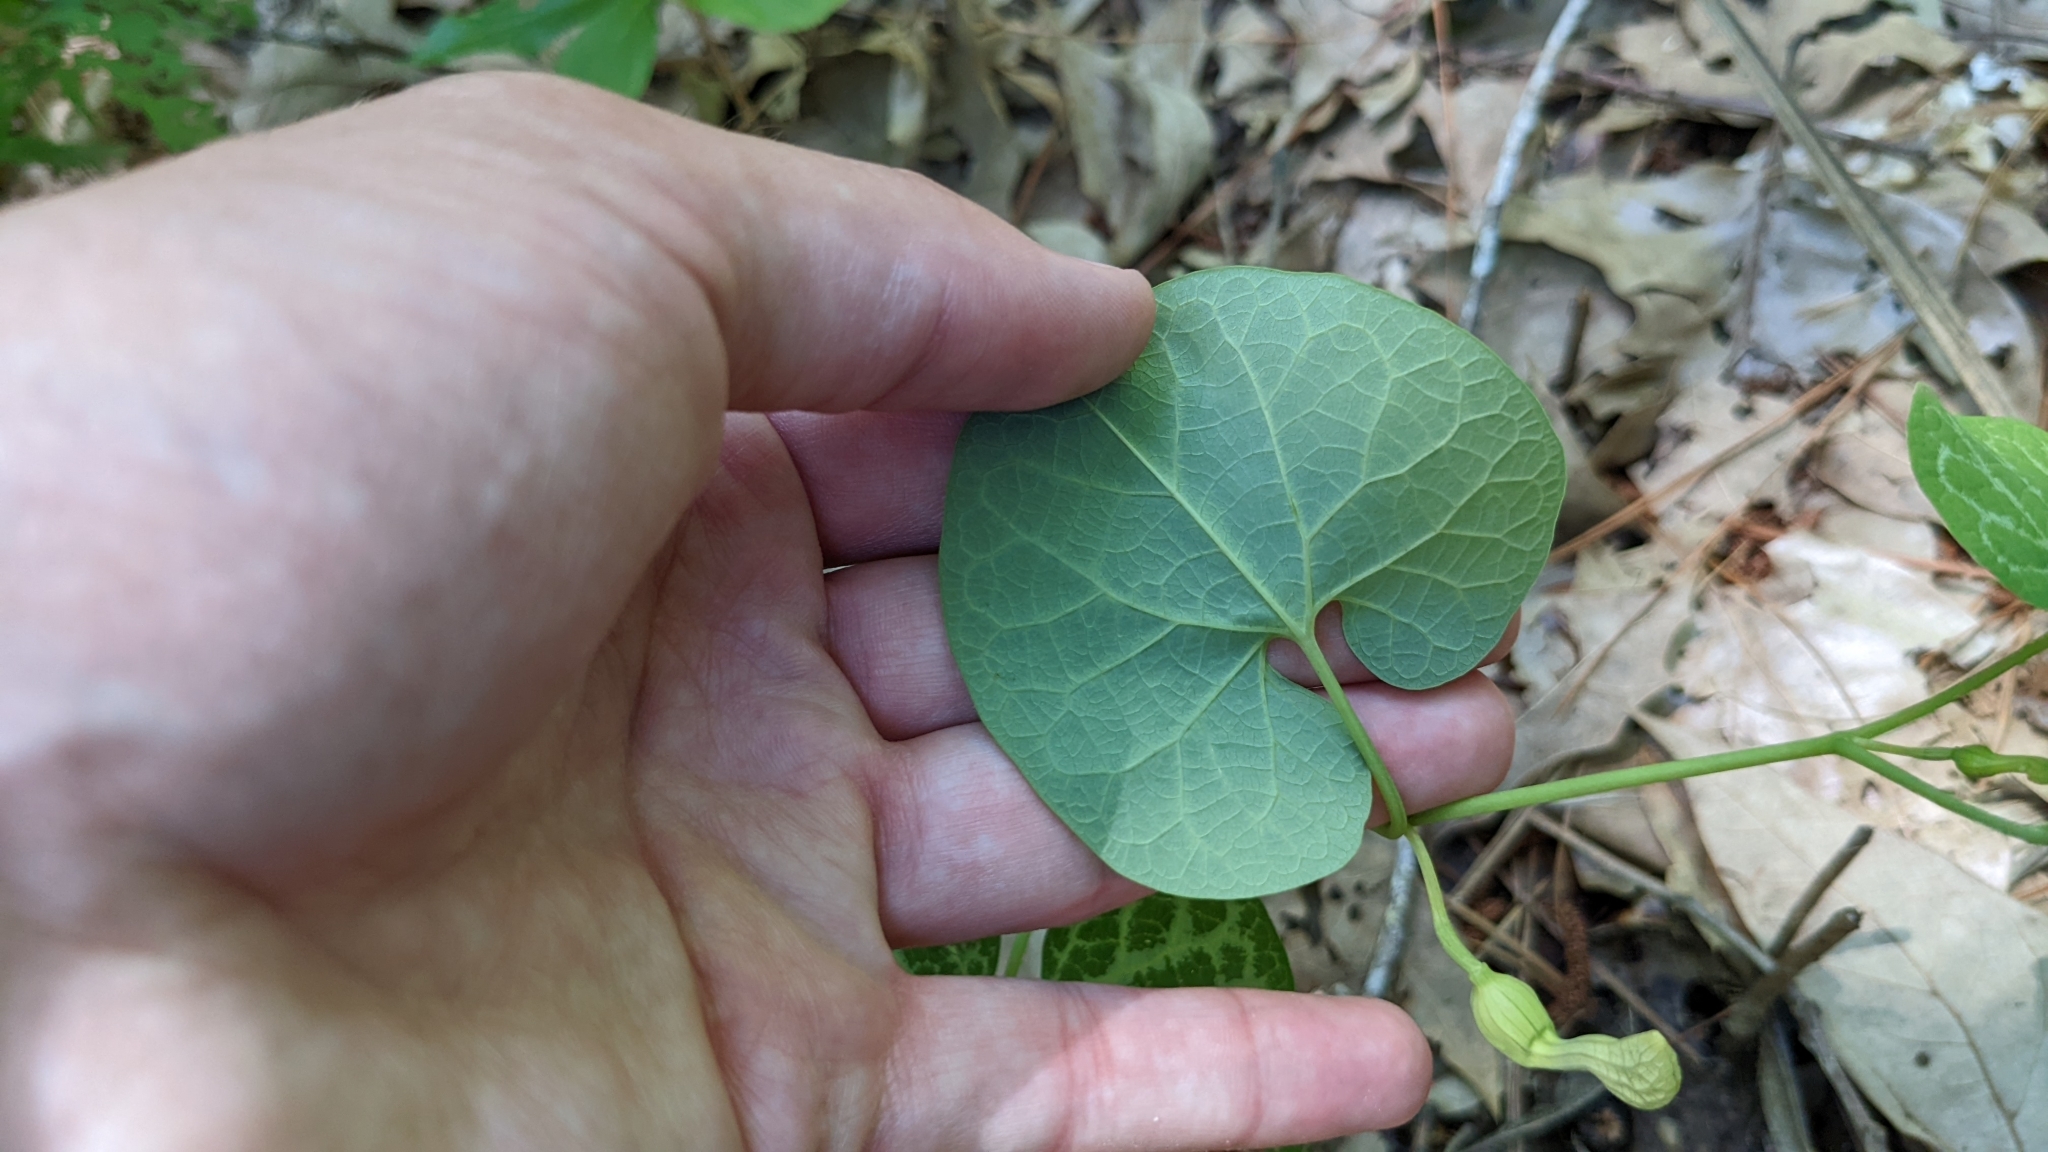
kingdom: Plantae
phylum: Tracheophyta
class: Magnoliopsida
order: Piperales
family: Aristolochiaceae
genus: Aristolochia
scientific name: Aristolochia fimbriata
